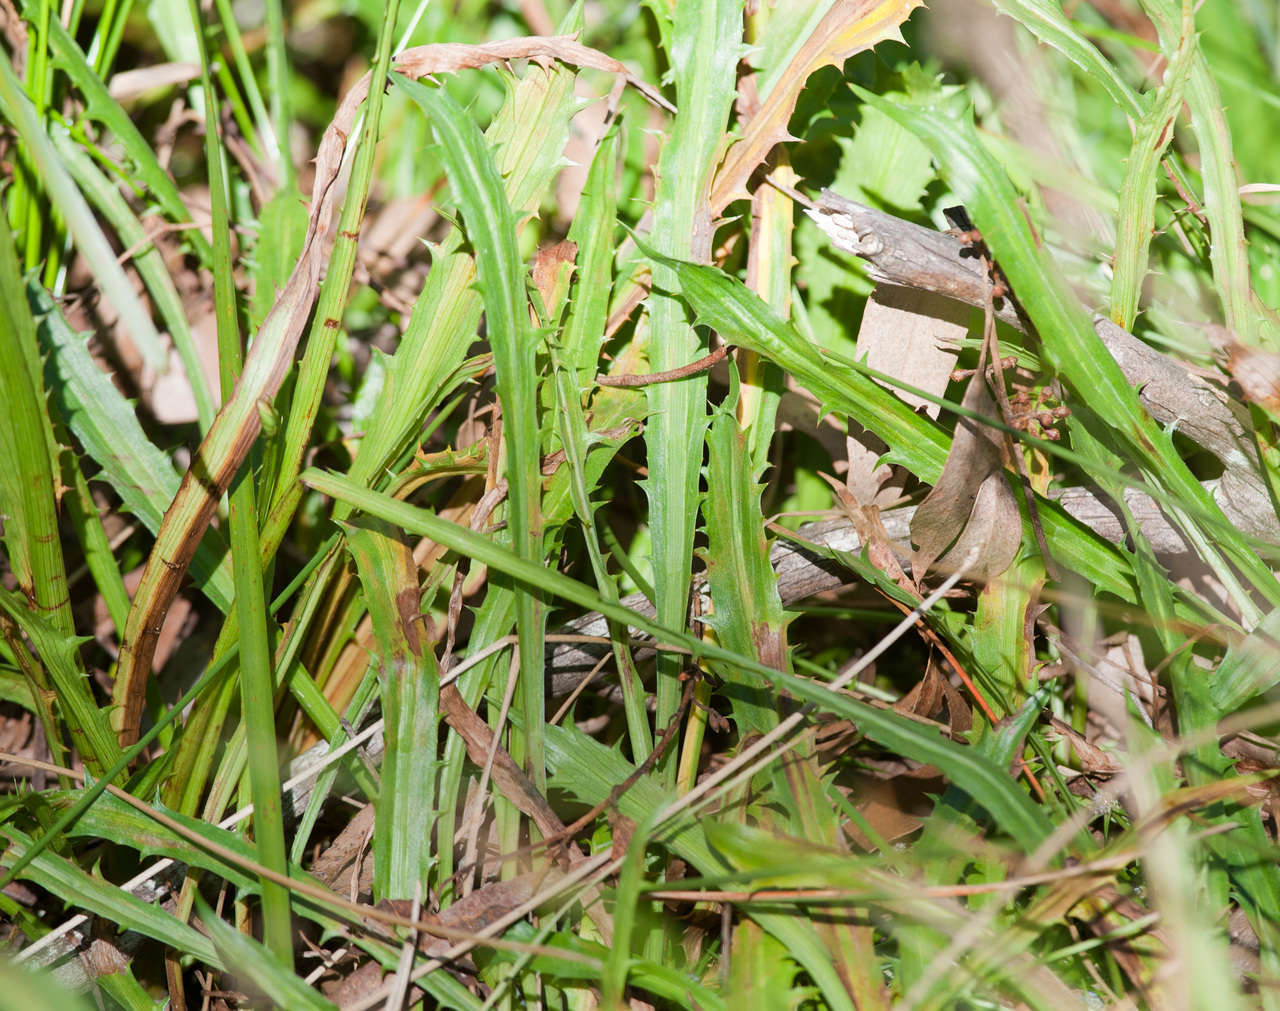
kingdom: Plantae
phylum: Tracheophyta
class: Magnoliopsida
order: Apiales
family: Apiaceae
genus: Eryngium
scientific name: Eryngium vesiculosum
